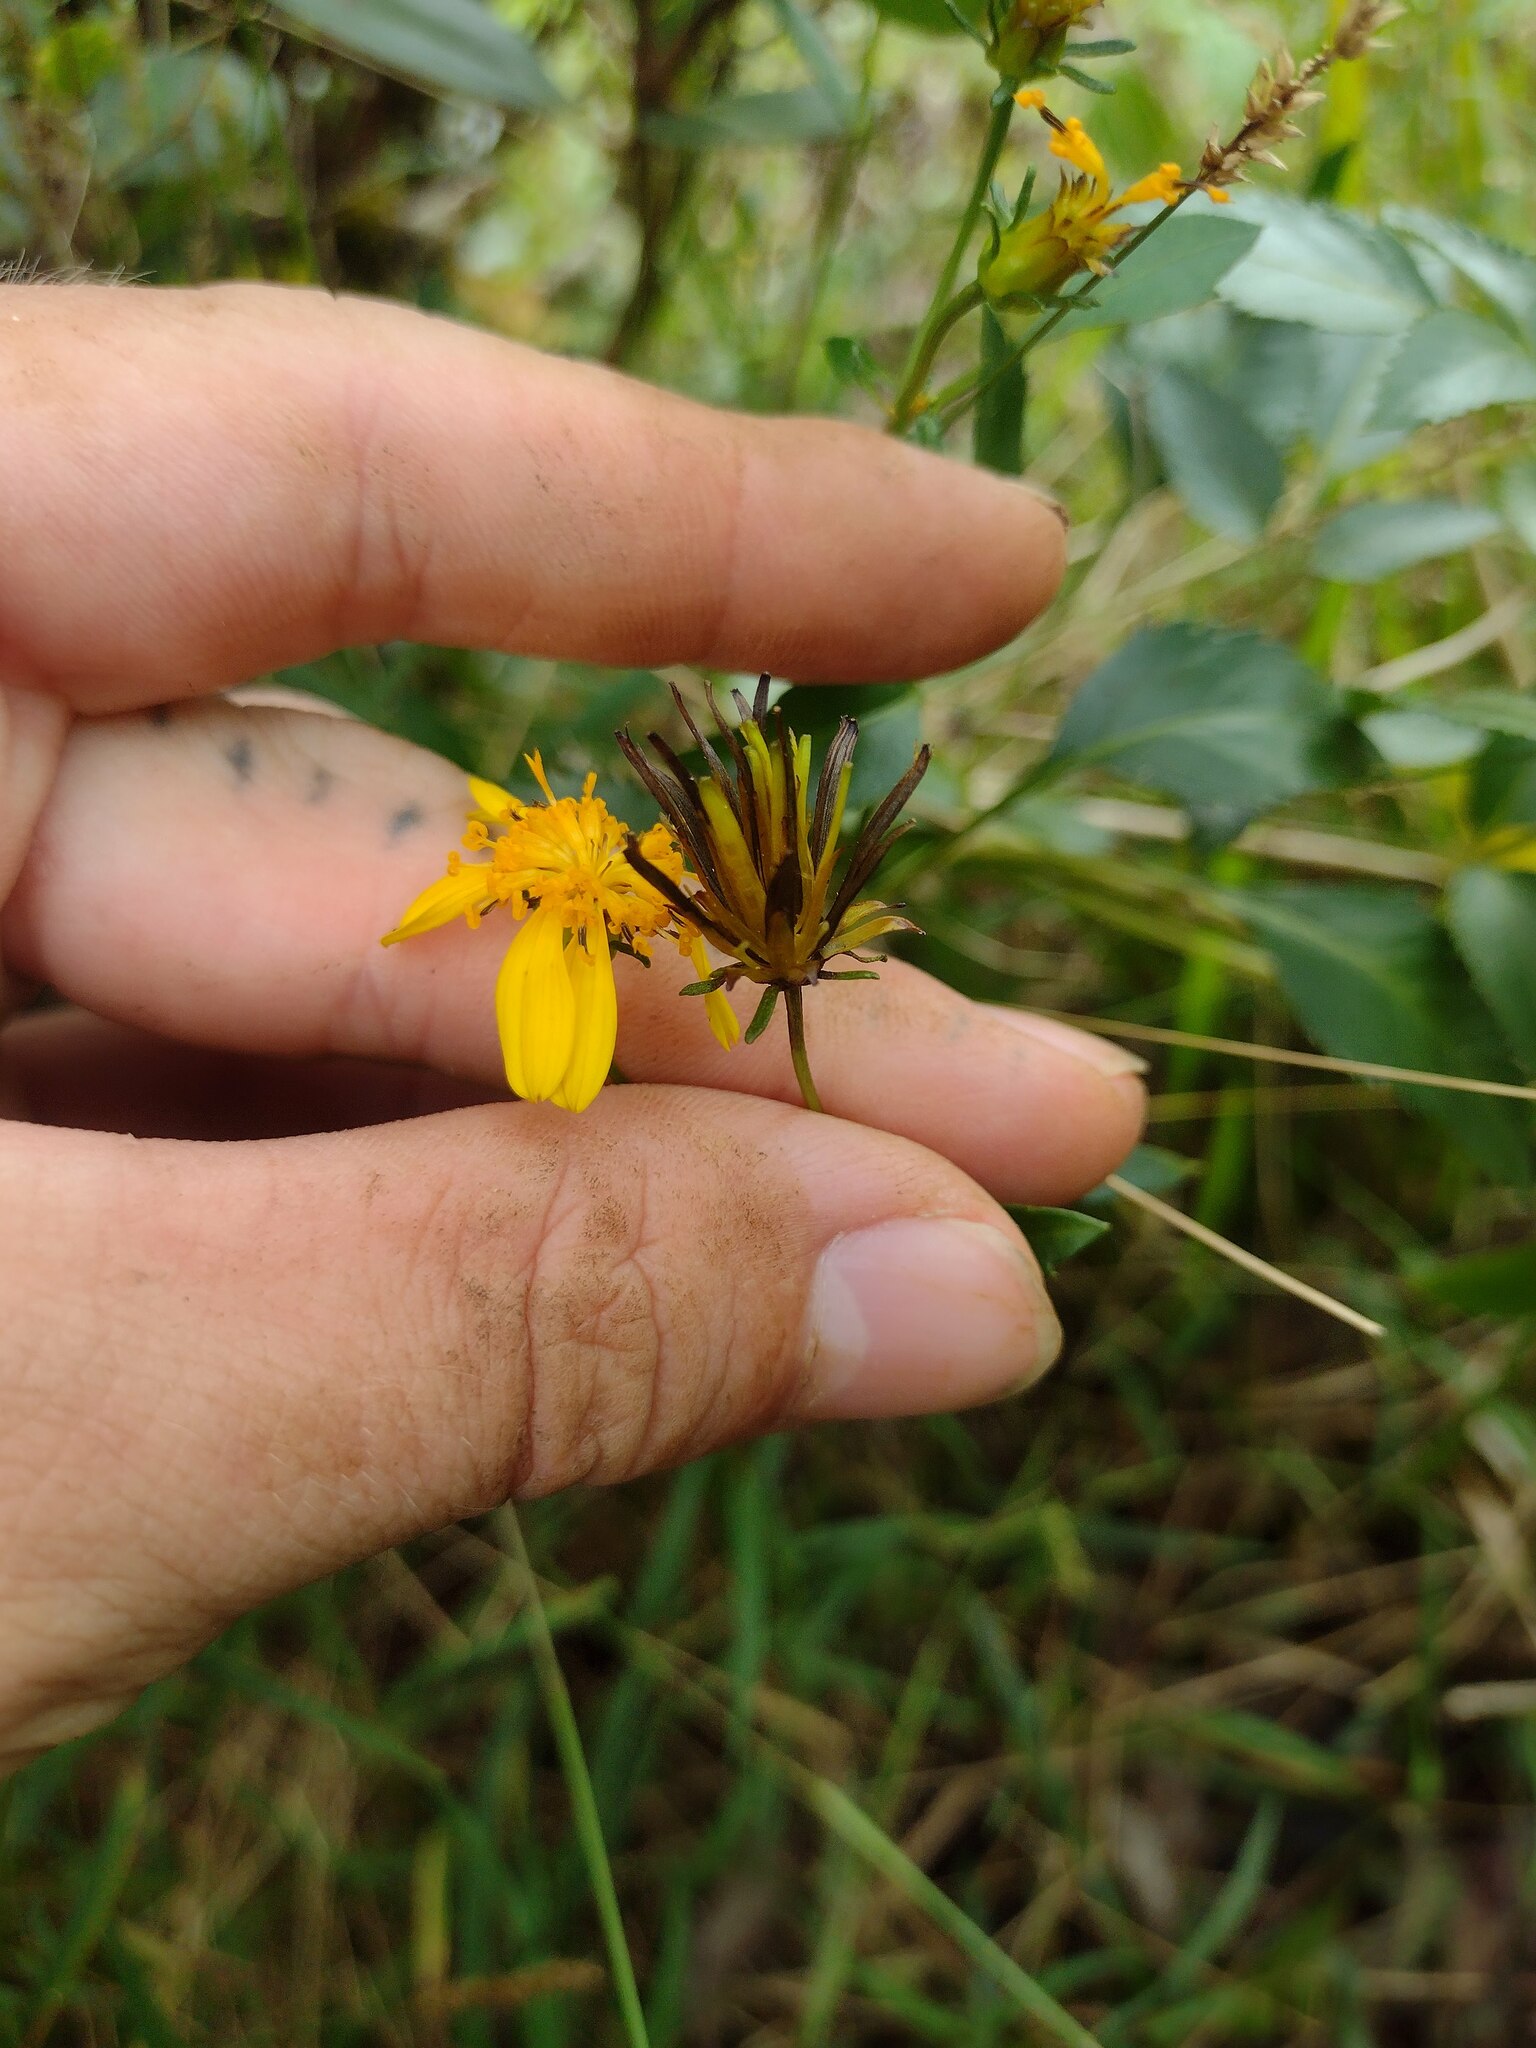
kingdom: Plantae
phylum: Tracheophyta
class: Magnoliopsida
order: Asterales
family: Asteraceae
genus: Bidens
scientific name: Bidens sandvicensis
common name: Shrubland beggarticks
